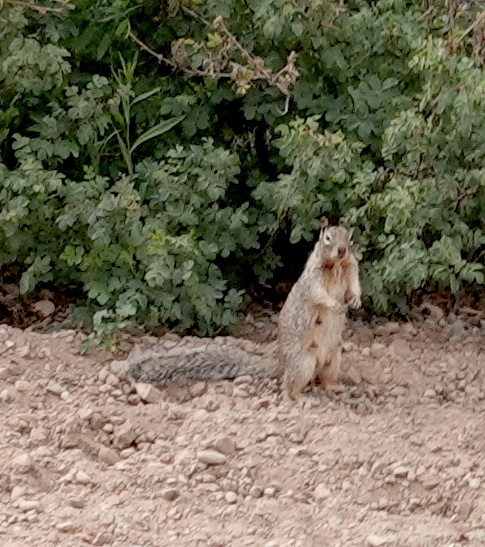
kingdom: Animalia
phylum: Chordata
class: Mammalia
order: Rodentia
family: Sciuridae
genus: Otospermophilus
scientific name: Otospermophilus variegatus
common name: Rock squirrel
